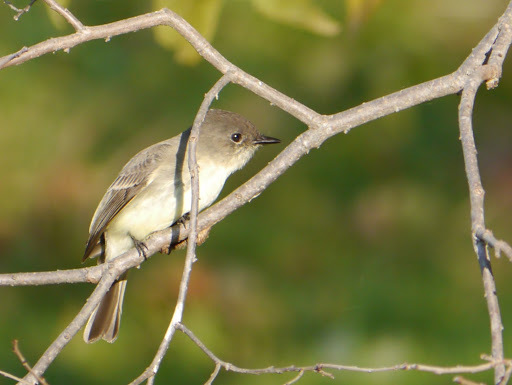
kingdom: Animalia
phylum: Chordata
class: Aves
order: Passeriformes
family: Tyrannidae
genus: Sayornis
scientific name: Sayornis phoebe
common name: Eastern phoebe
